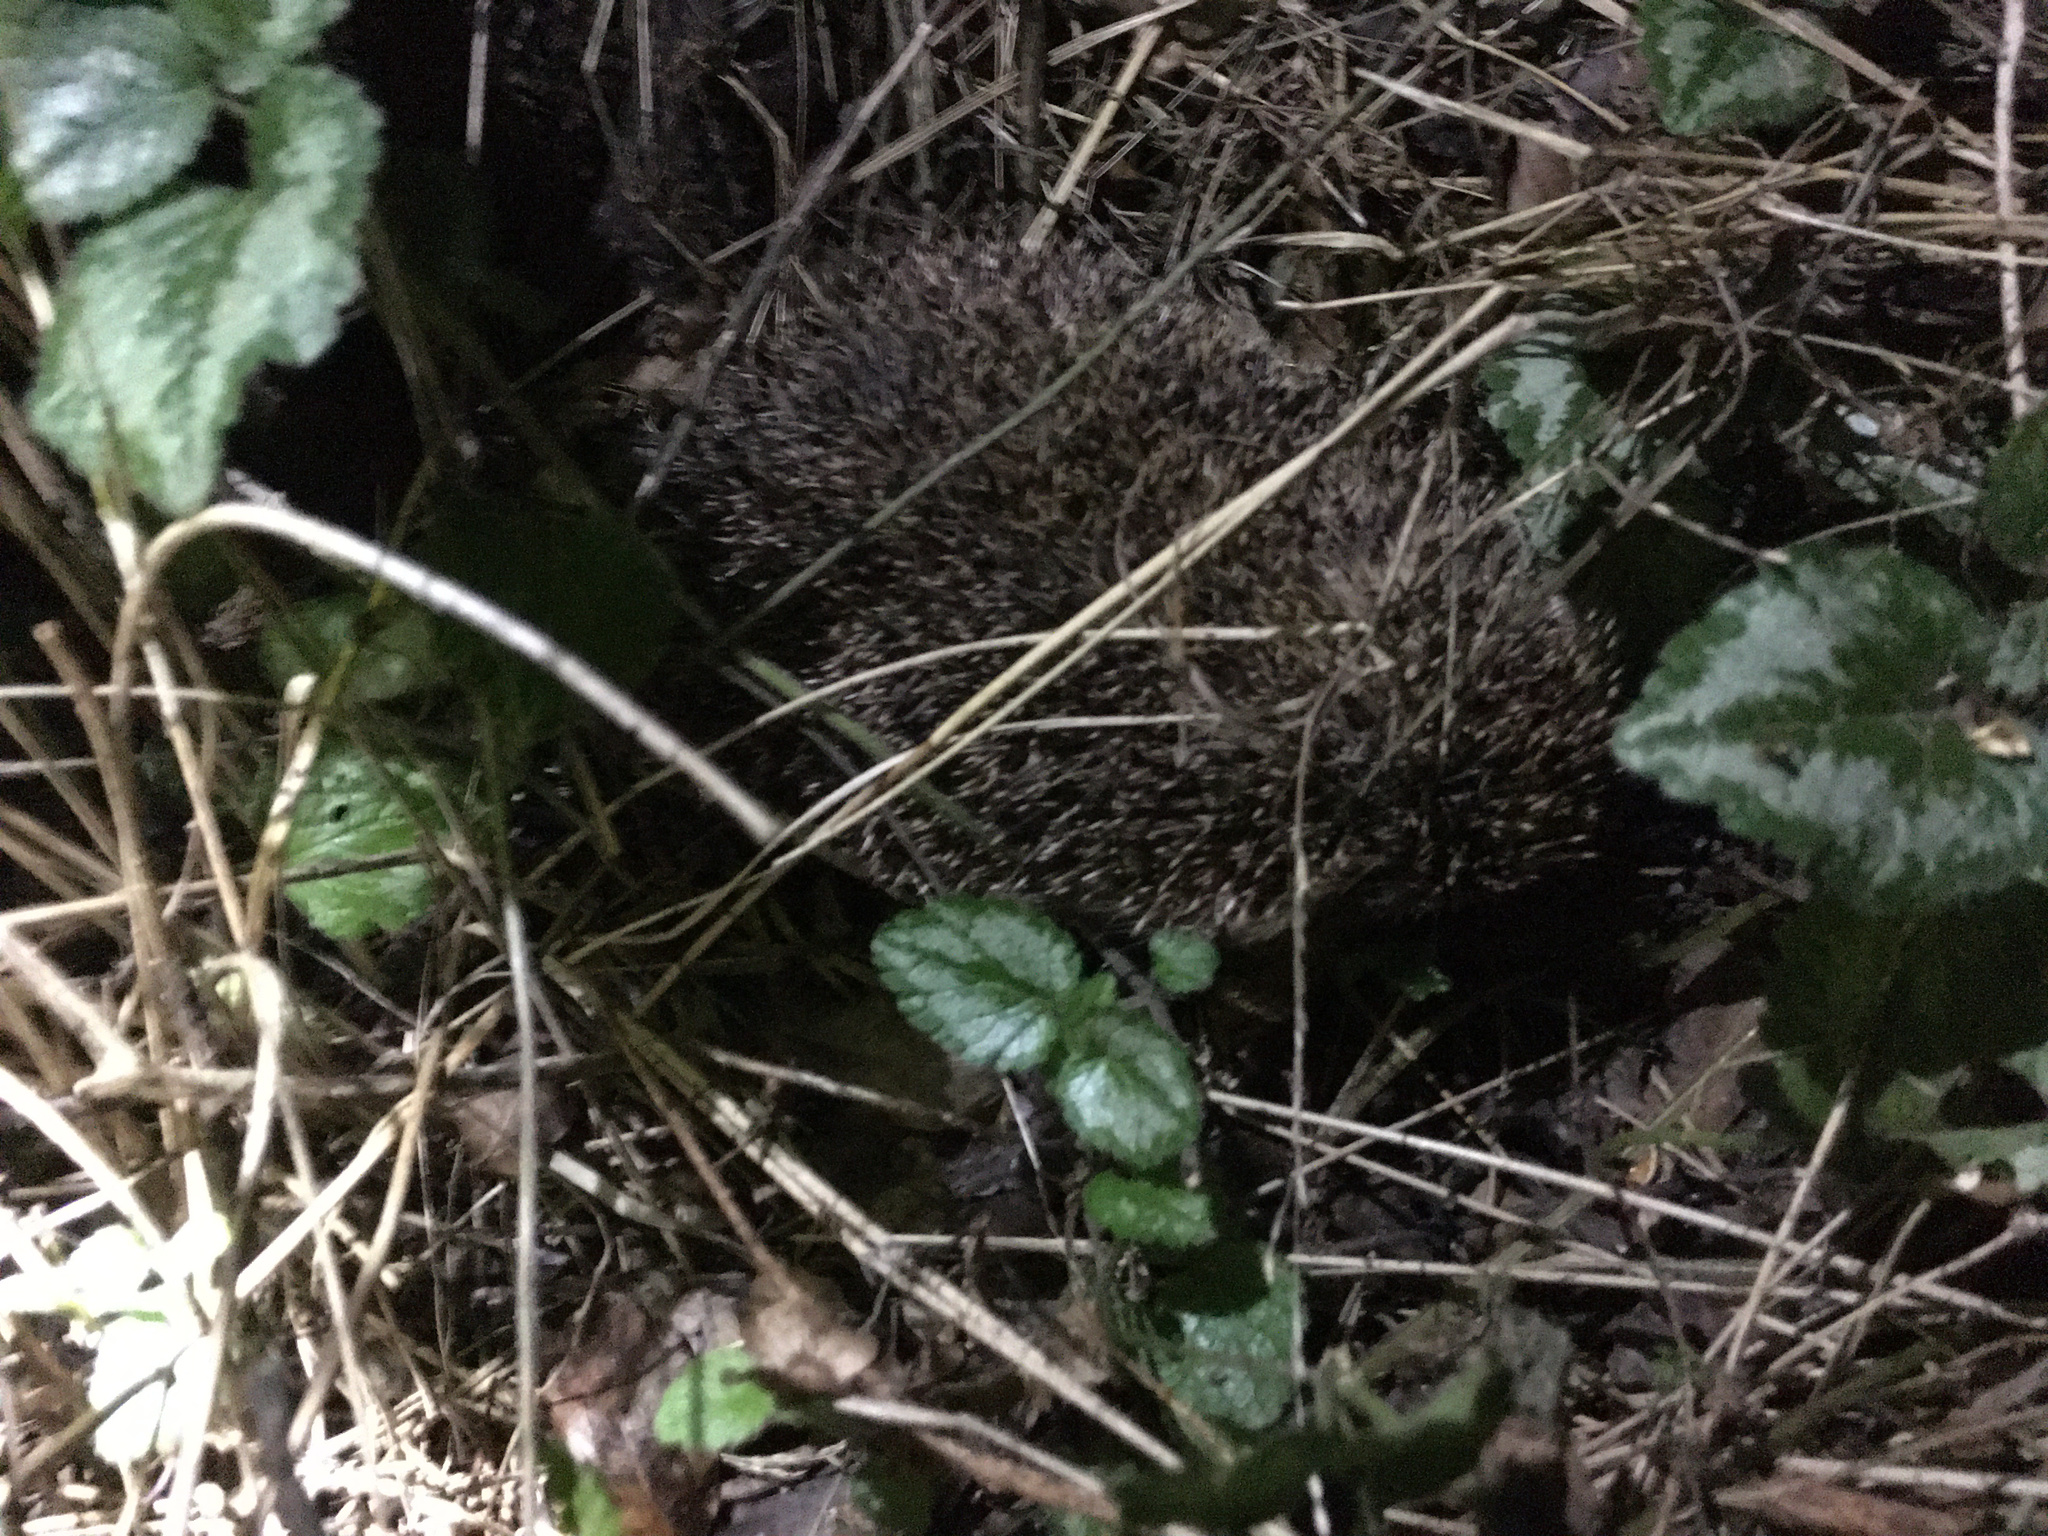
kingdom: Animalia
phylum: Chordata
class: Mammalia
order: Erinaceomorpha
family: Erinaceidae
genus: Erinaceus
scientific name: Erinaceus europaeus
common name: West european hedgehog
